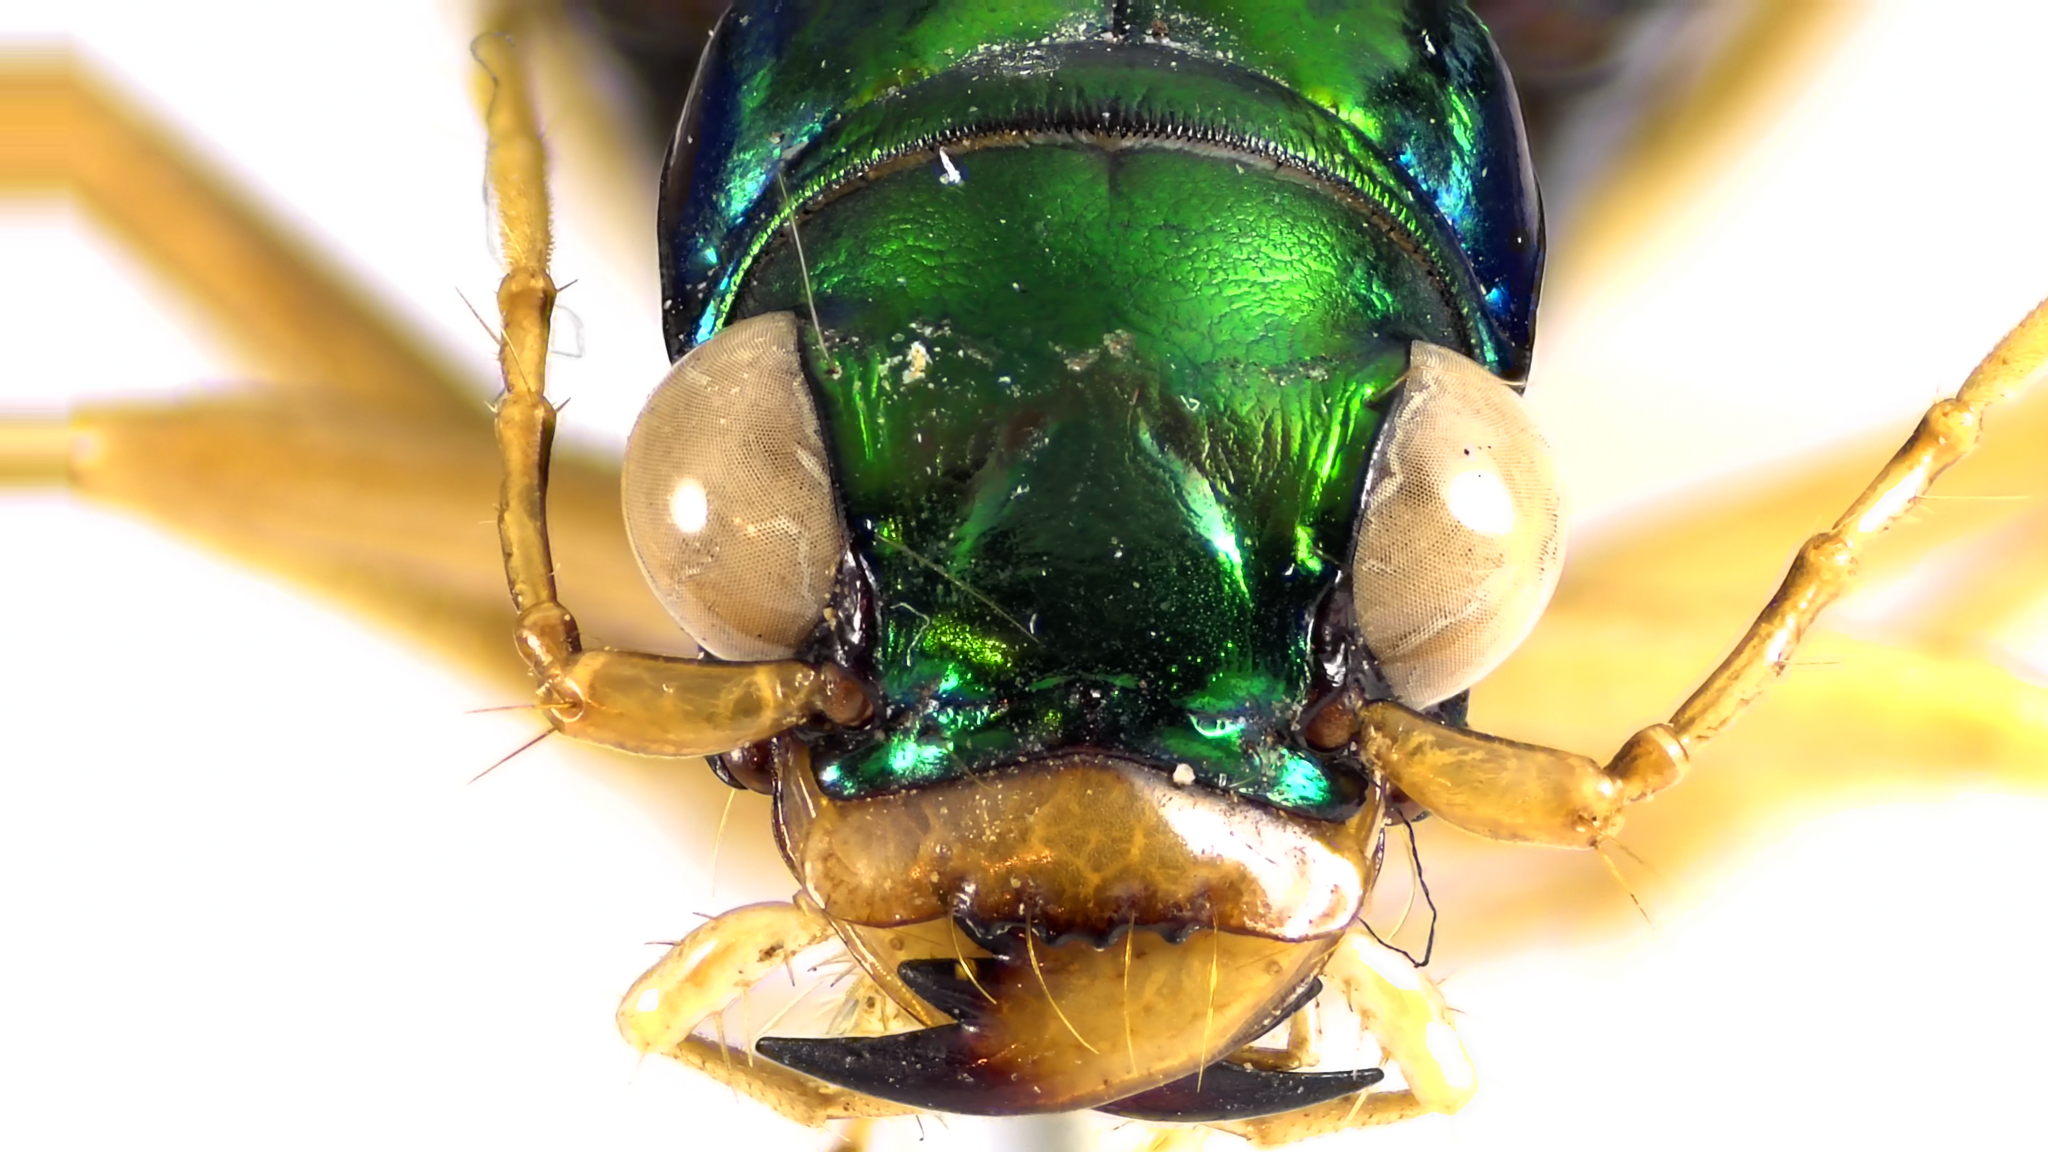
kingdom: Animalia
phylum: Arthropoda
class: Insecta
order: Coleoptera
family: Carabidae
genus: Tetracha
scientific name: Tetracha carolina
